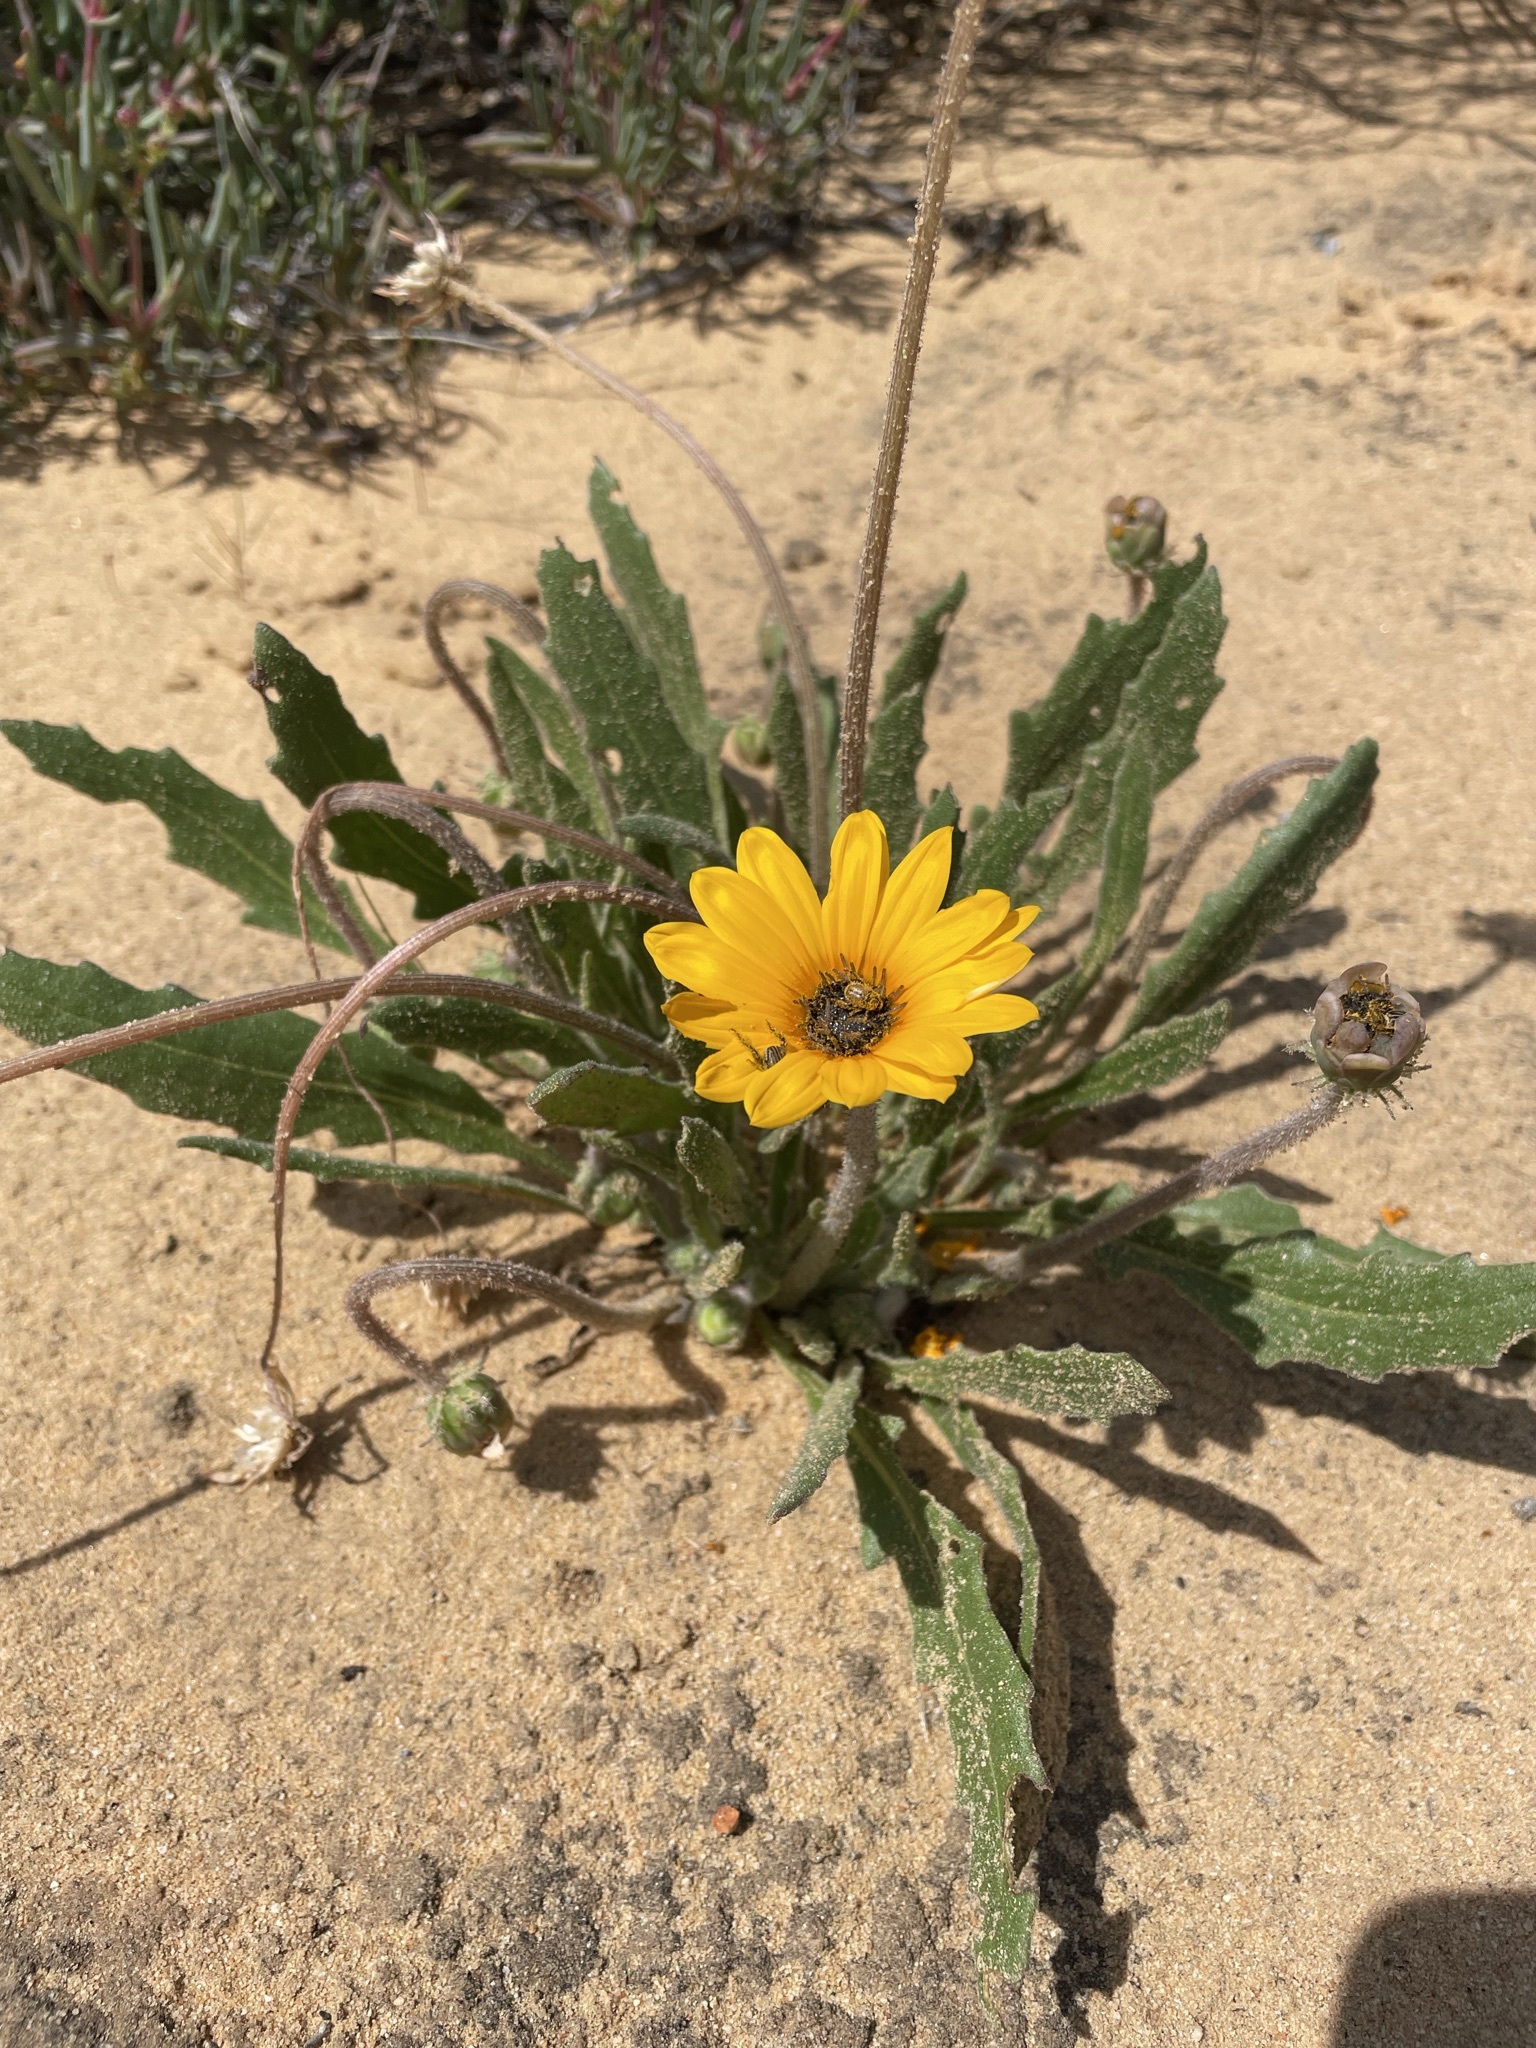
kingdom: Plantae
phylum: Tracheophyta
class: Magnoliopsida
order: Asterales
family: Asteraceae
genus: Arctotis
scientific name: Arctotis breviscapa
